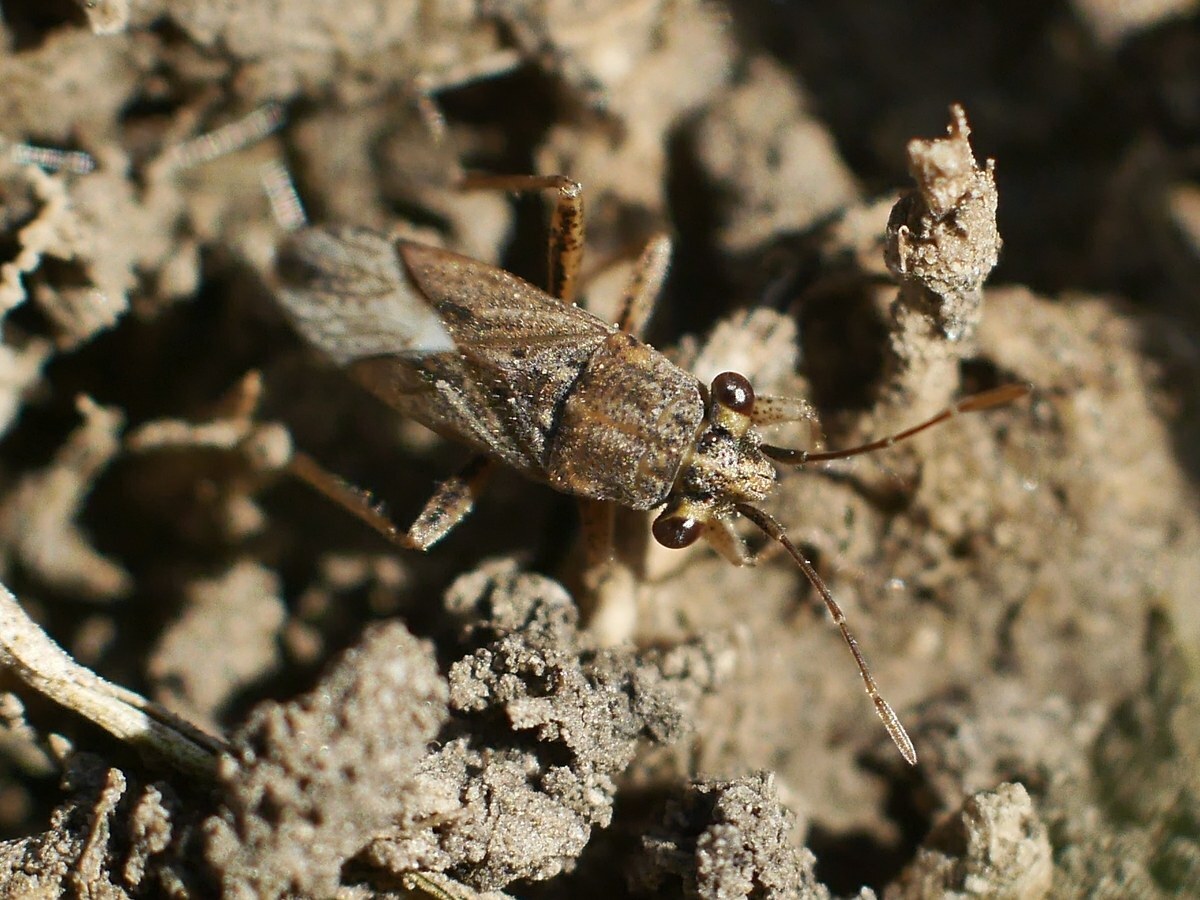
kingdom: Animalia
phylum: Arthropoda
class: Insecta
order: Hemiptera
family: Geocoridae
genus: Henestaris
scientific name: Henestaris halophilus
